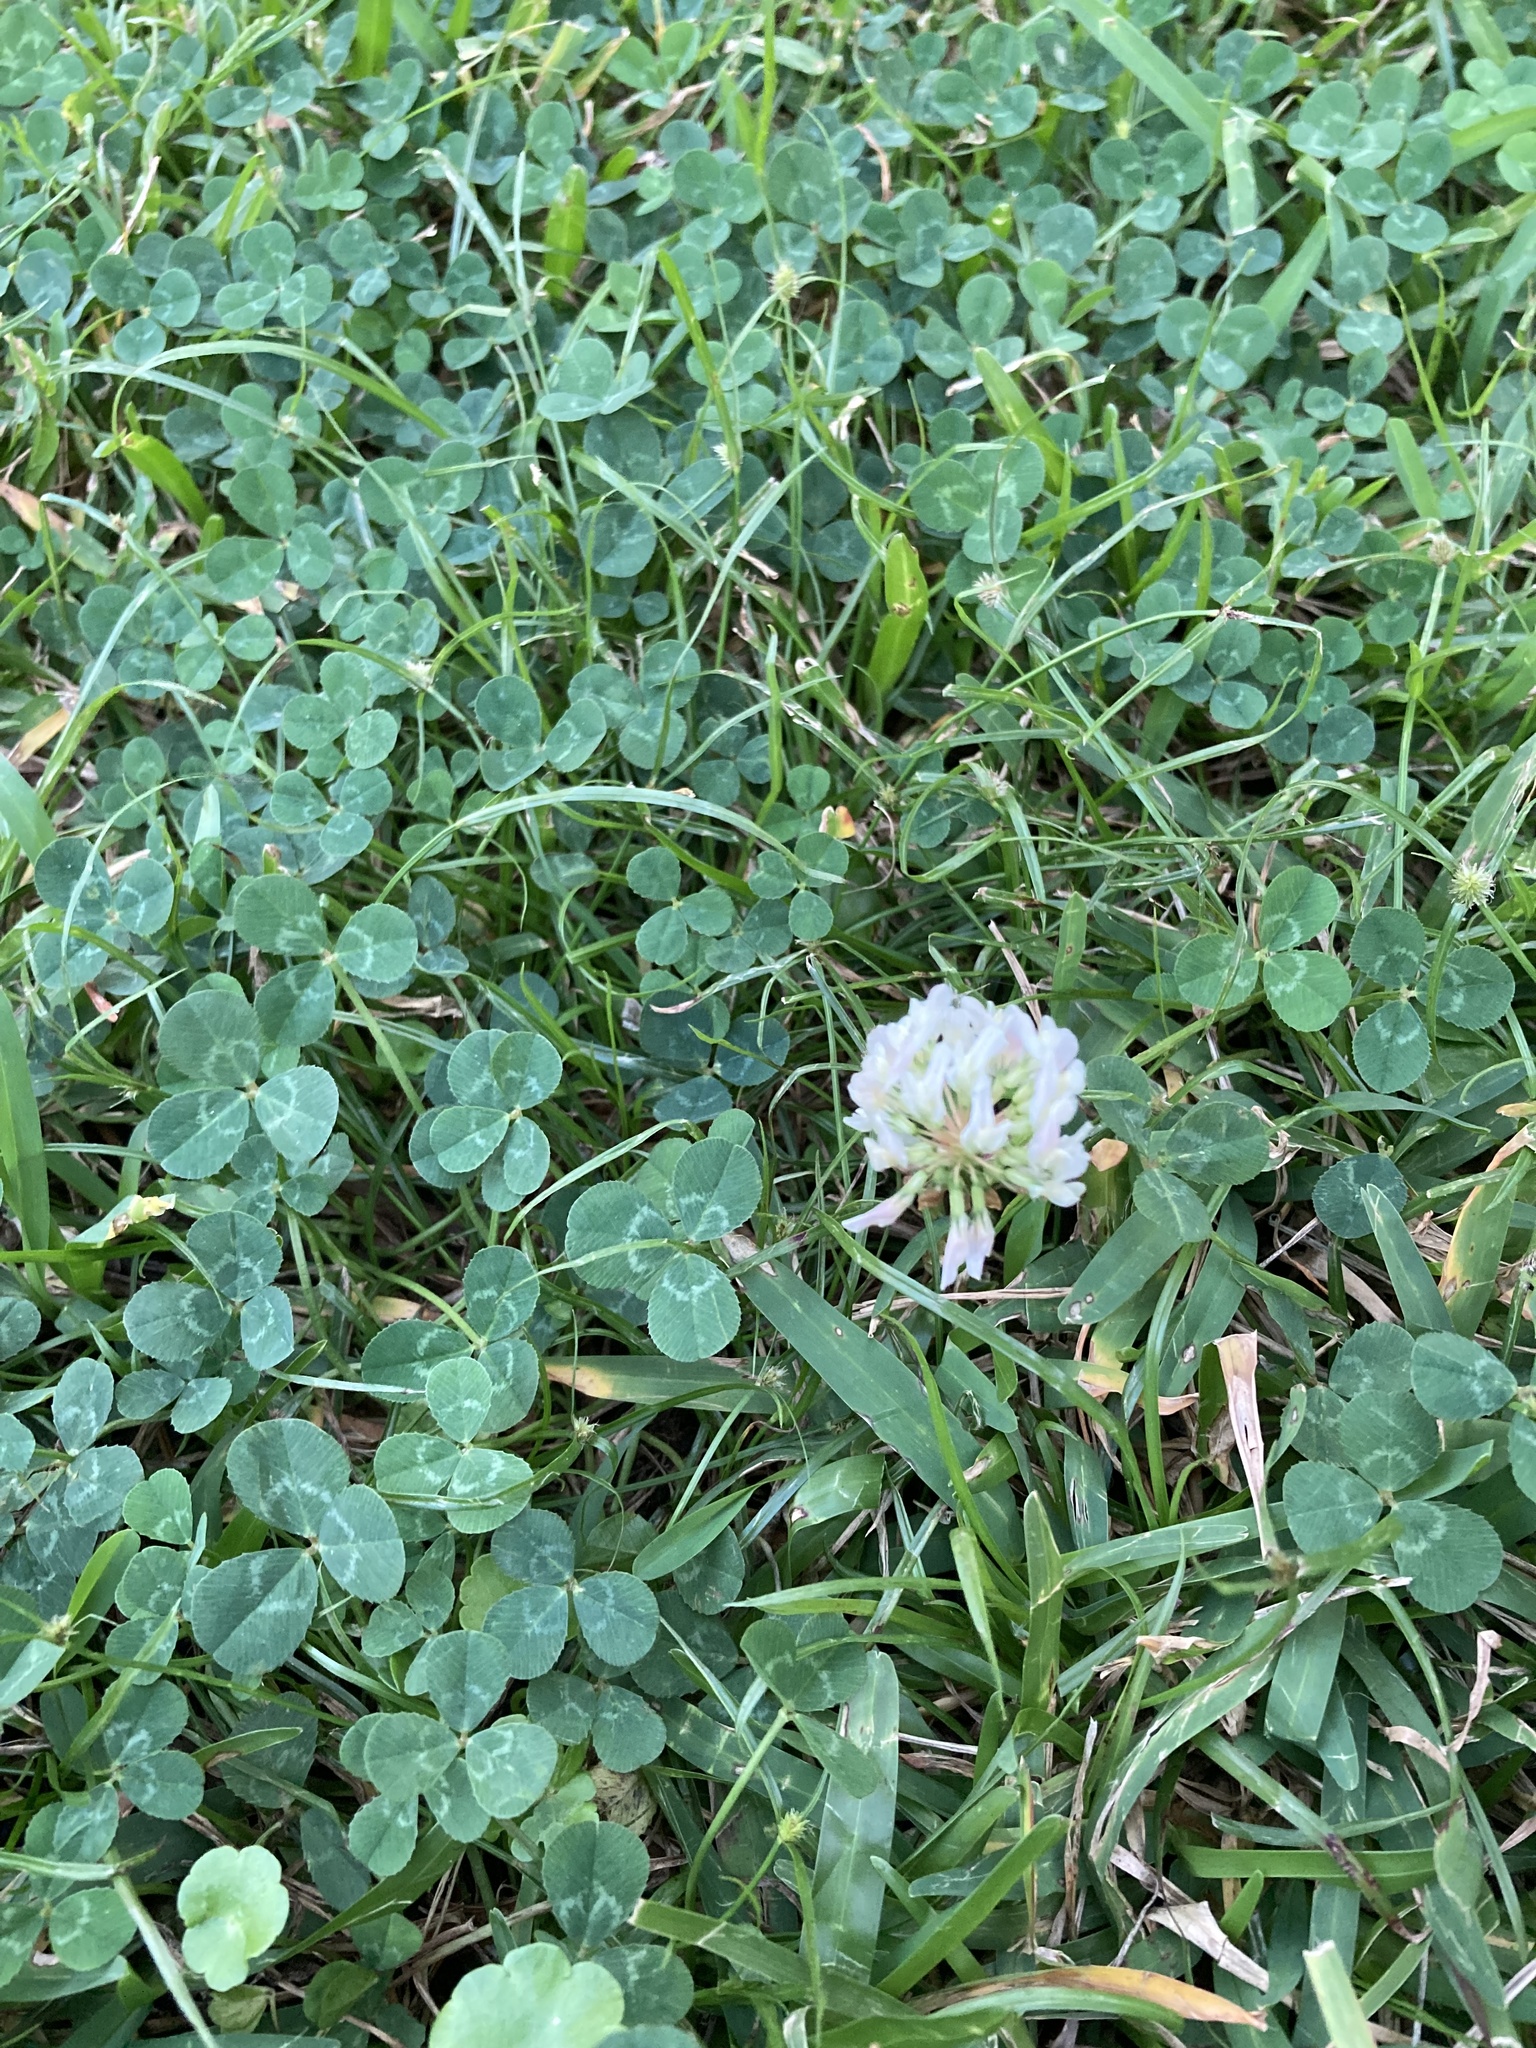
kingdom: Plantae
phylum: Tracheophyta
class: Magnoliopsida
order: Fabales
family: Fabaceae
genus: Trifolium
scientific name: Trifolium repens
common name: White clover
